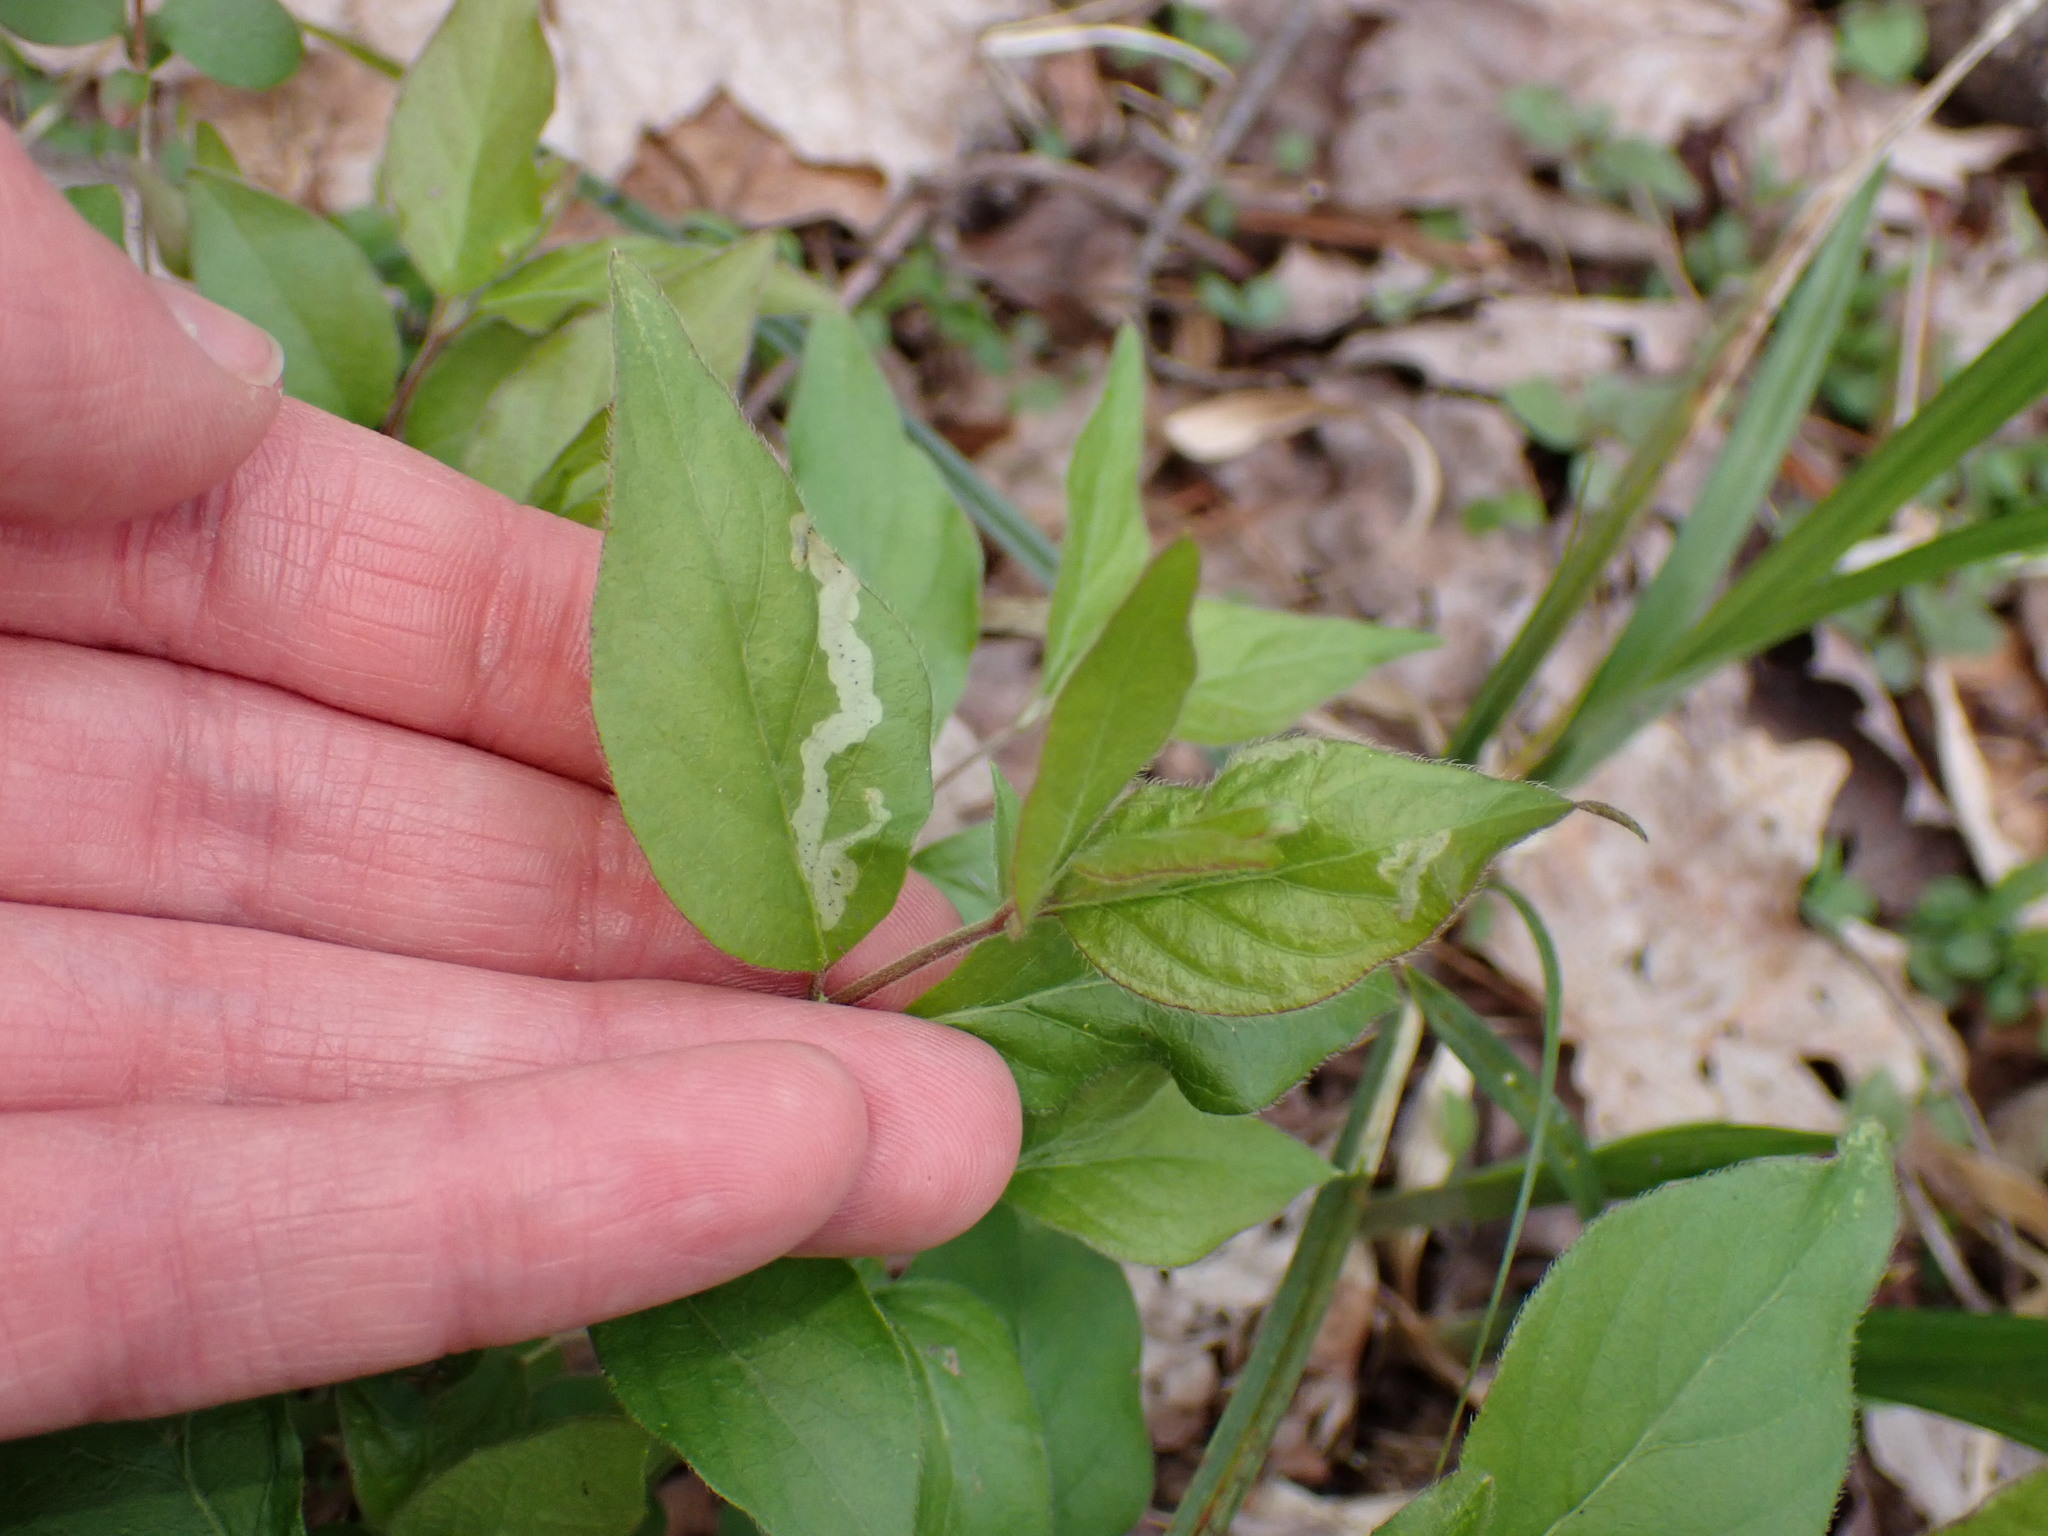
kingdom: Animalia
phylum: Arthropoda
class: Insecta
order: Diptera
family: Agromyzidae
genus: Aulagromyza
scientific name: Aulagromyza cornigera
